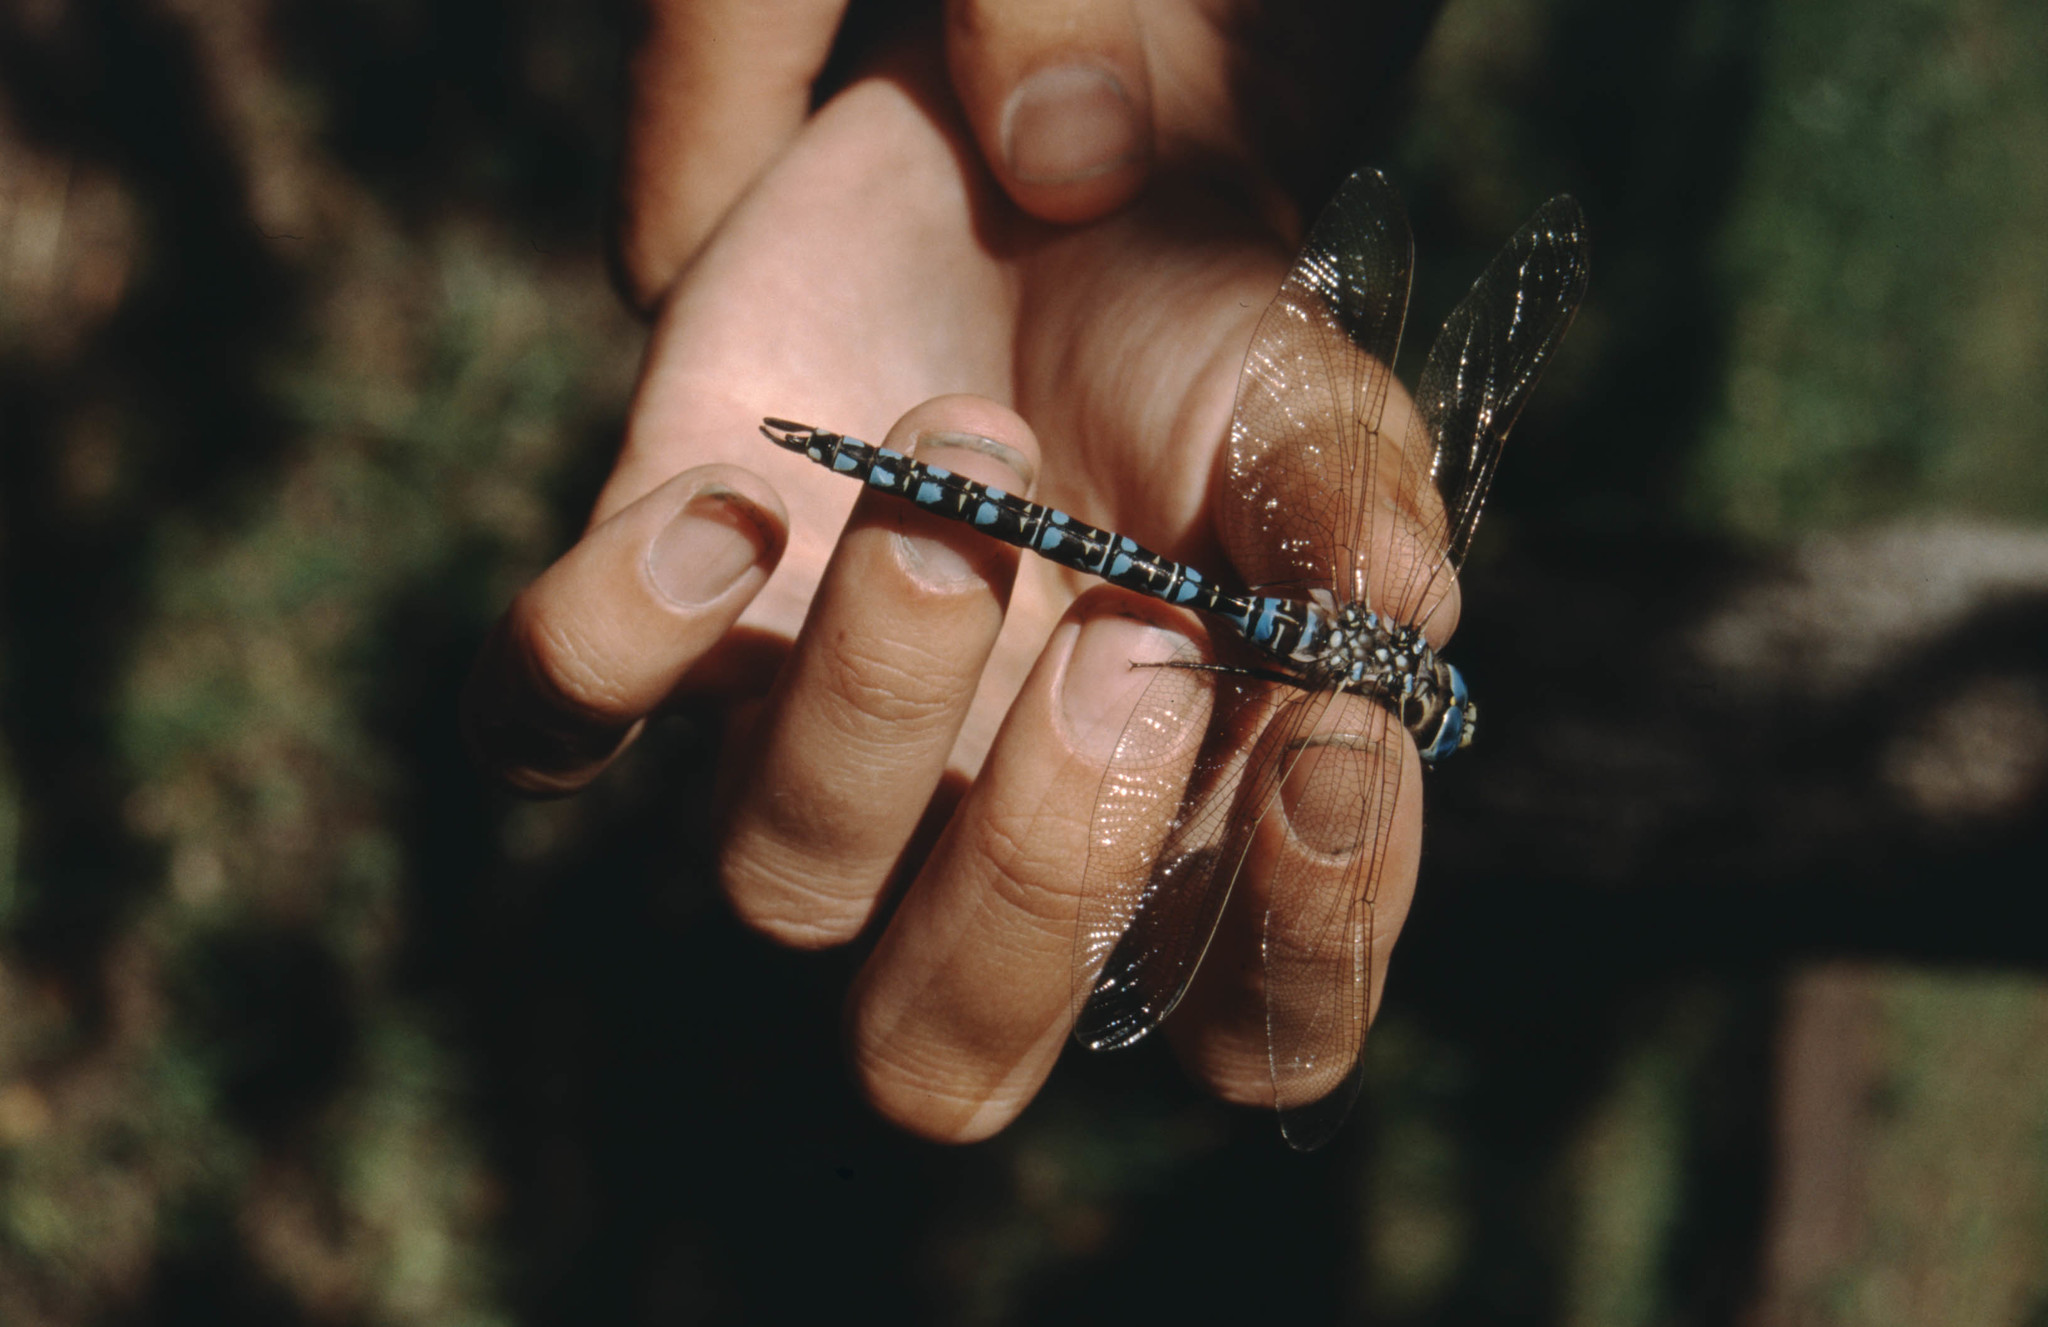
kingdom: Animalia
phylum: Arthropoda
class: Insecta
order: Odonata
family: Aeshnidae
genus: Aeshna
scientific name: Aeshna serrata
